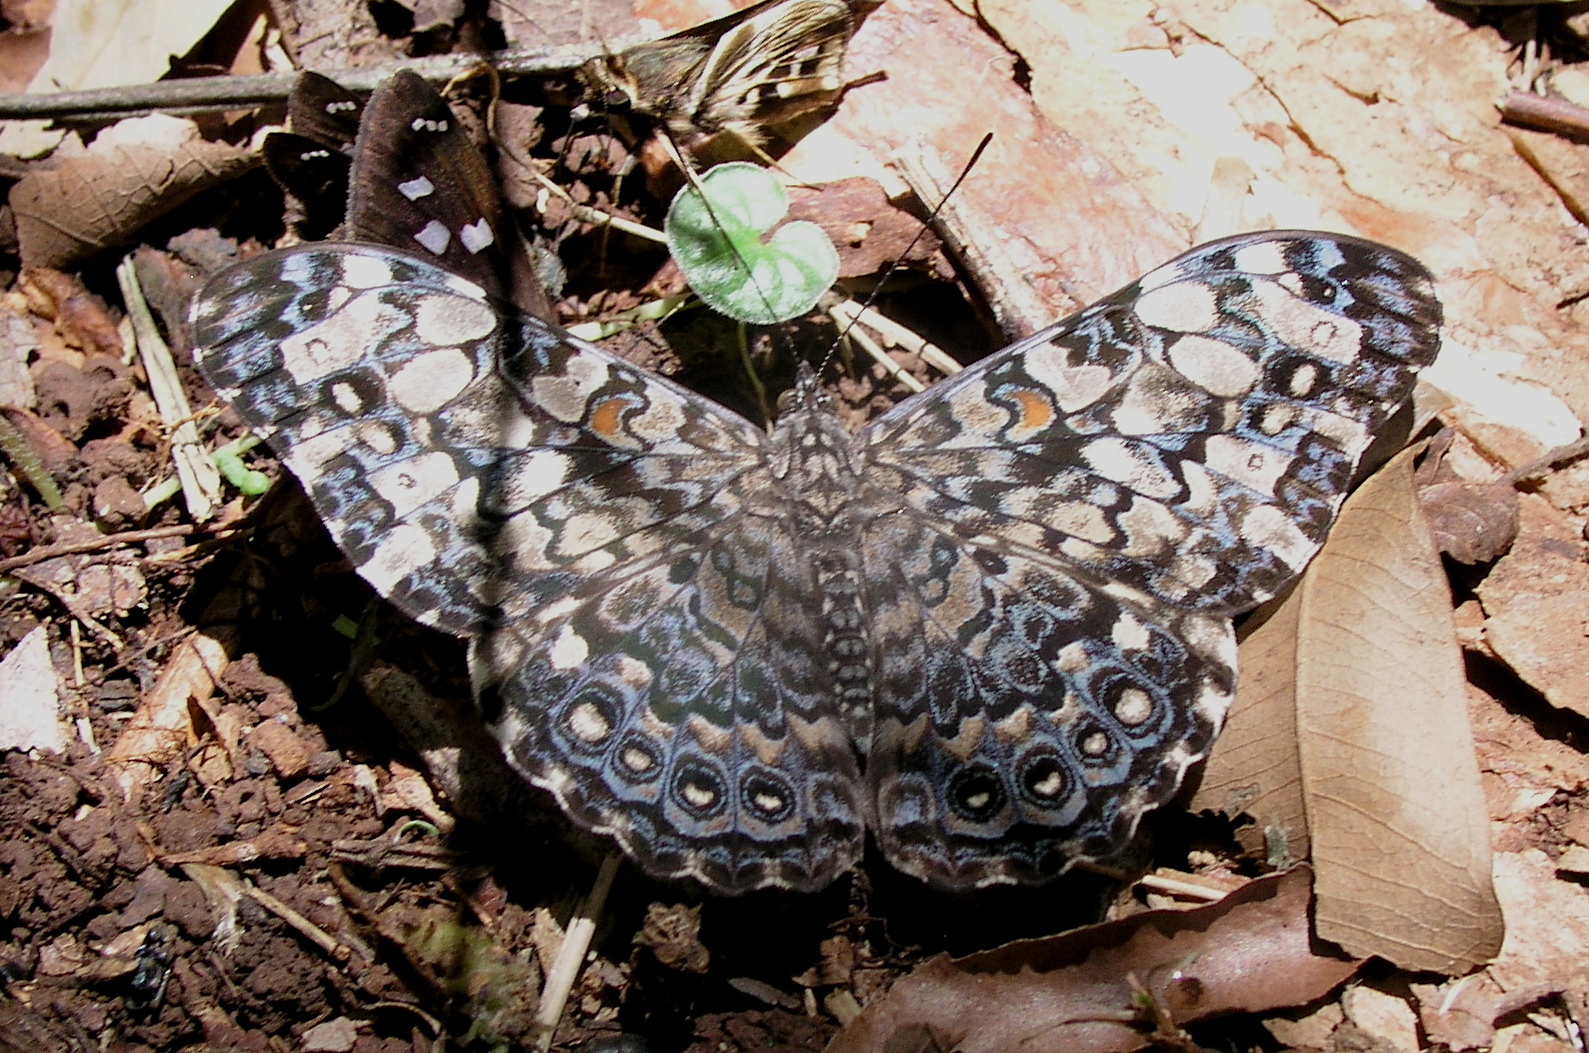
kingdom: Animalia
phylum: Arthropoda
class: Insecta
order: Lepidoptera
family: Nymphalidae
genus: Hamadryas
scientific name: Hamadryas epinome
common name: Epinome cracker
